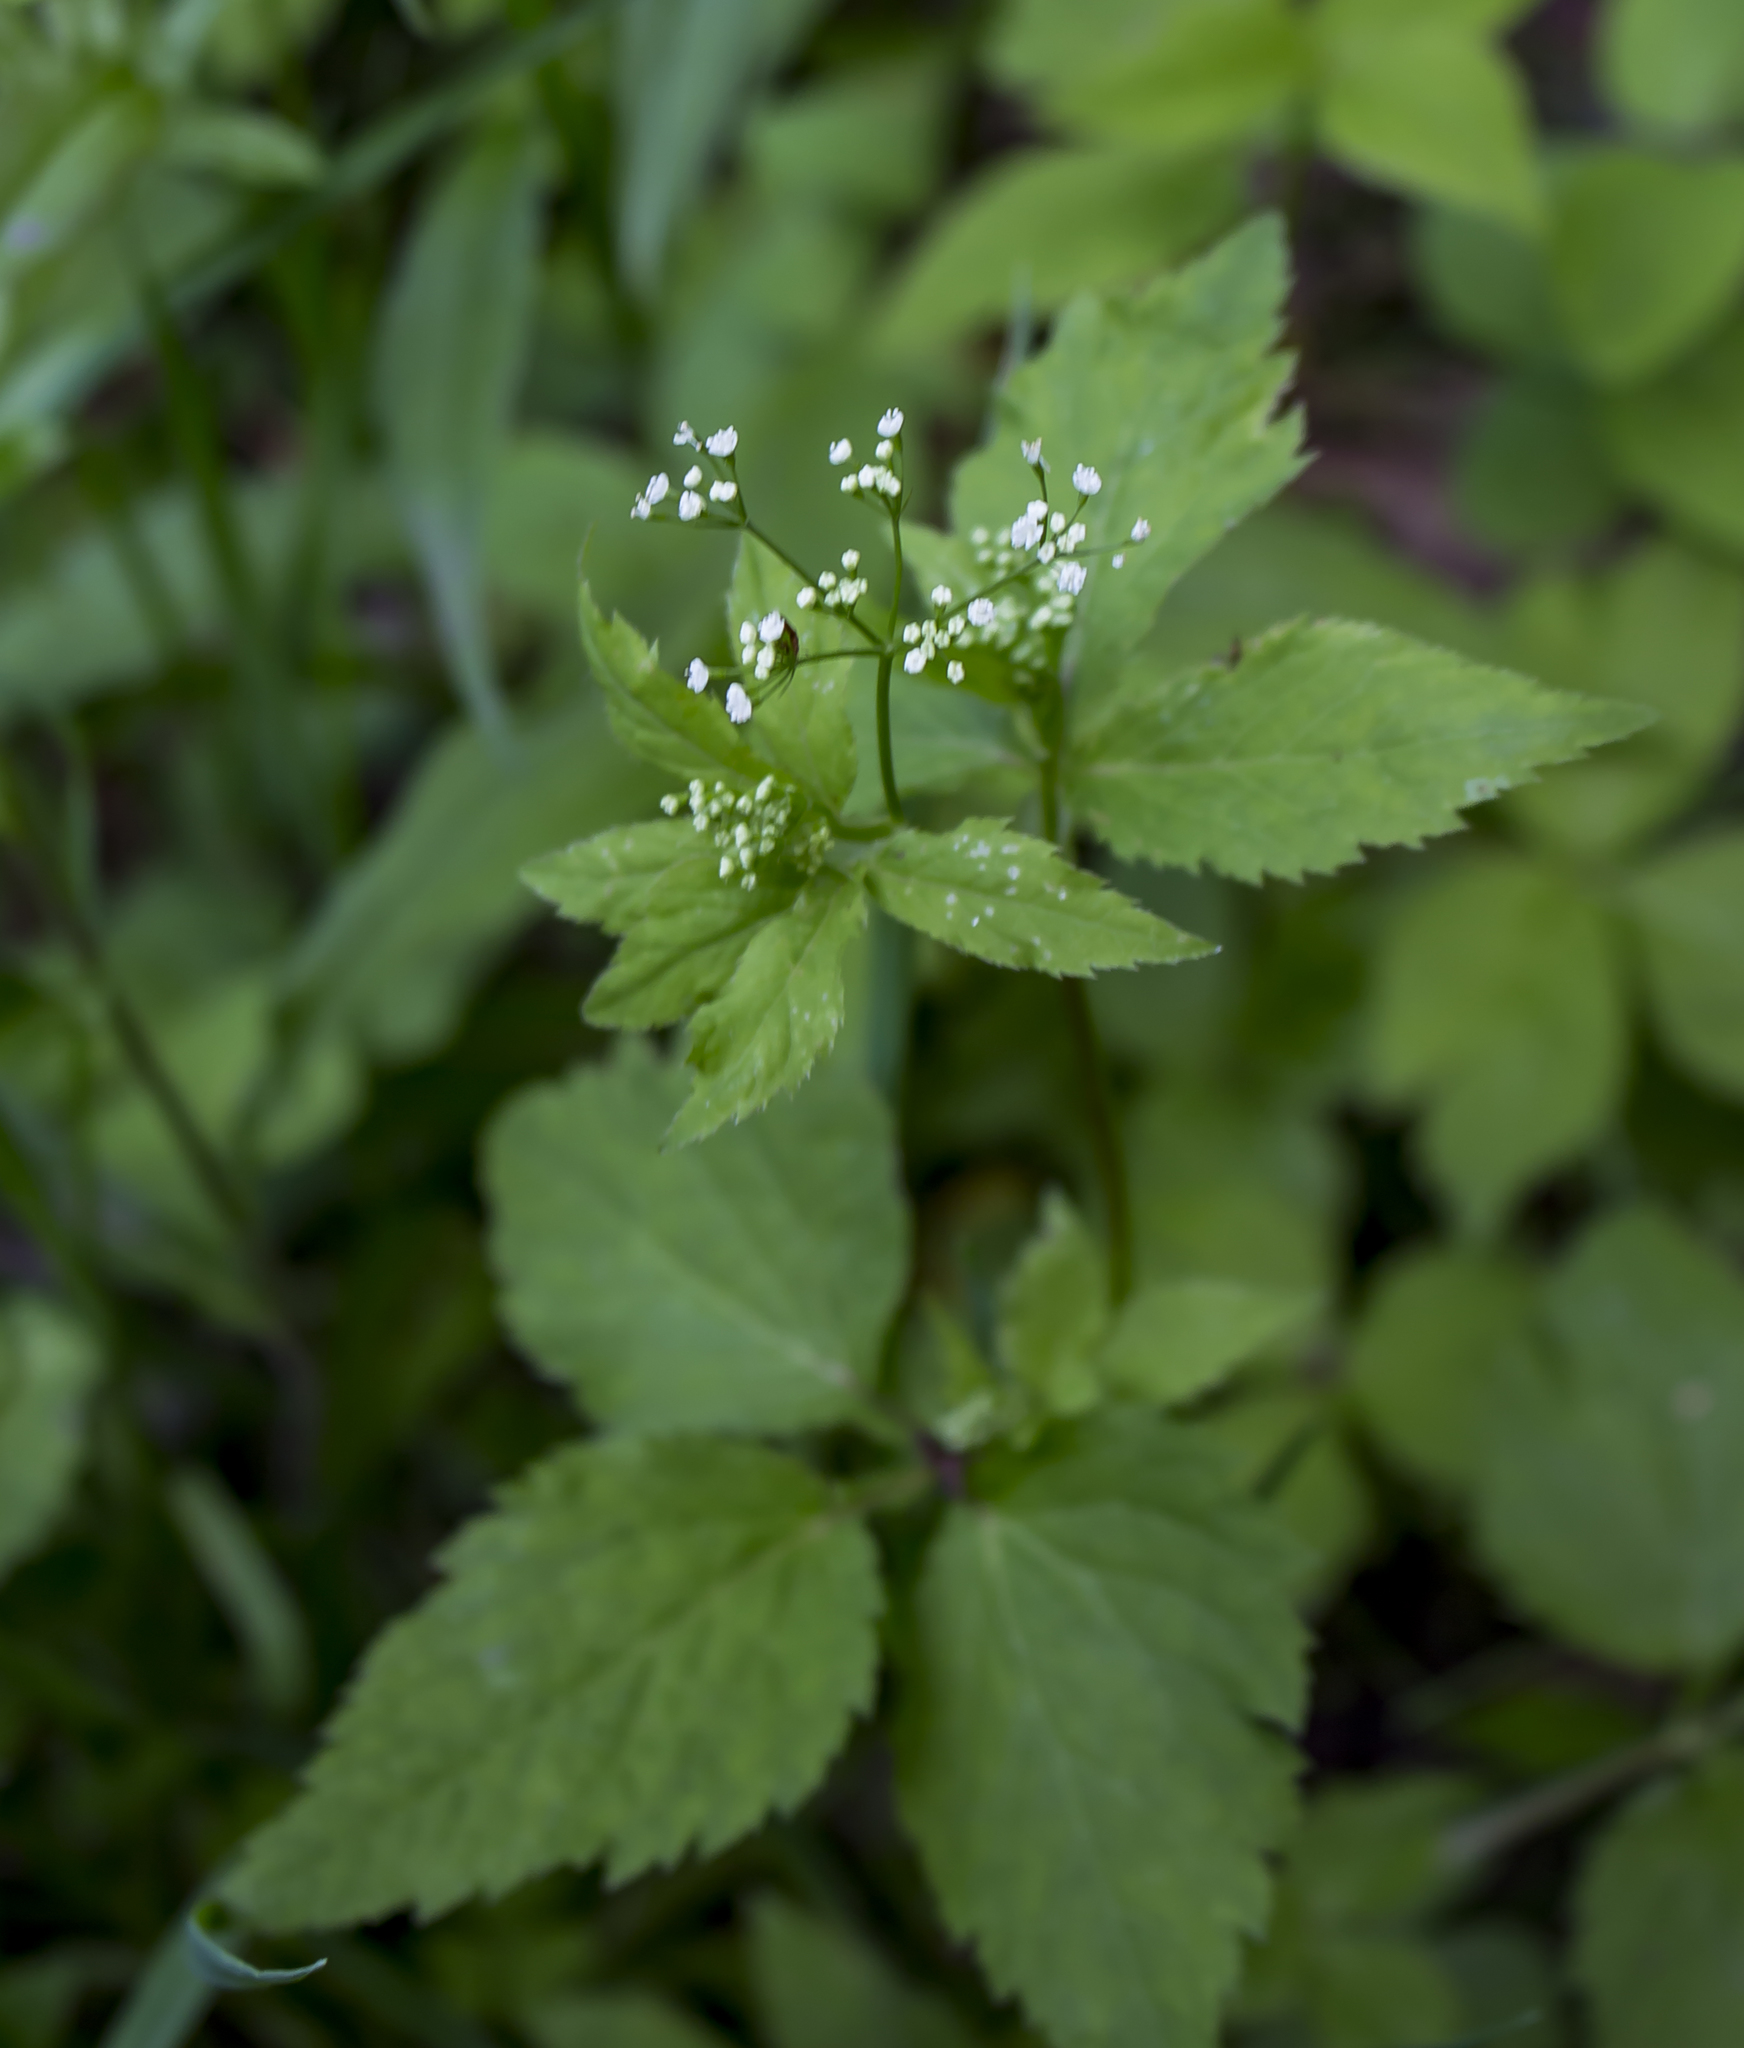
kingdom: Plantae
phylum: Tracheophyta
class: Magnoliopsida
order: Apiales
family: Apiaceae
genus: Cryptotaenia
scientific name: Cryptotaenia canadensis
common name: Honewort
